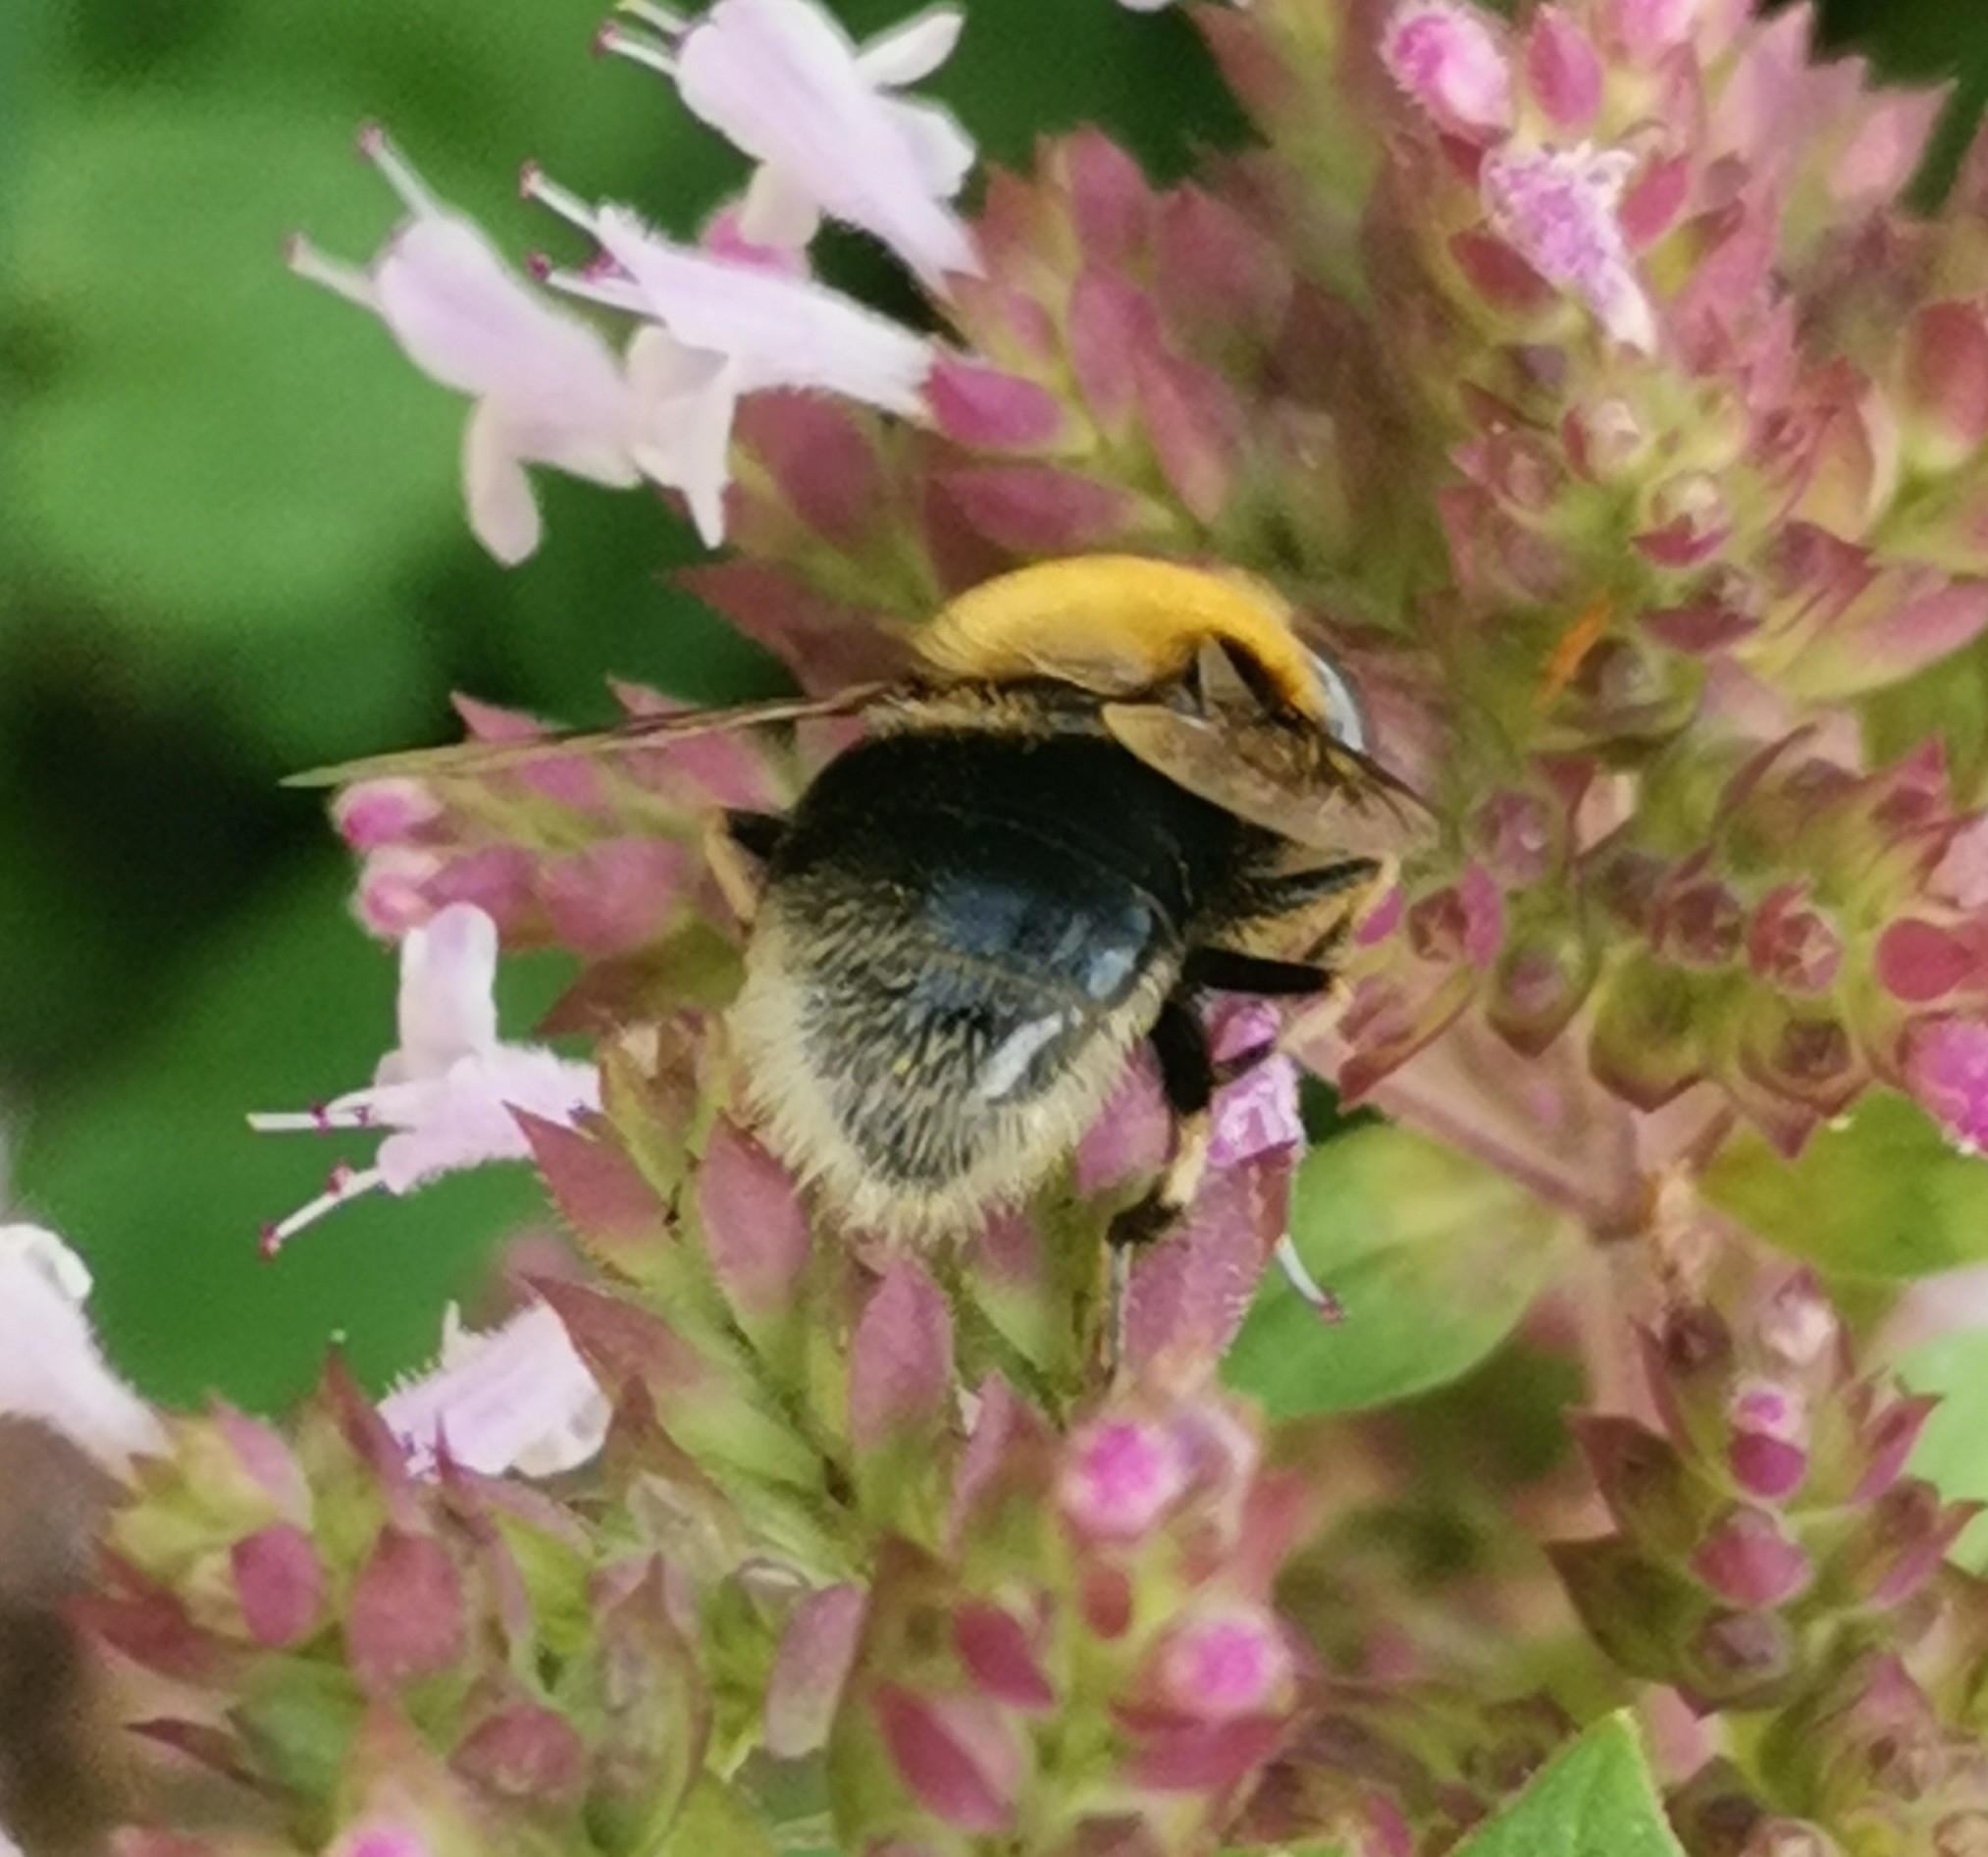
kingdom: Animalia
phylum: Arthropoda
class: Insecta
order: Diptera
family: Syrphidae
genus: Eristalis
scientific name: Eristalis intricaria
